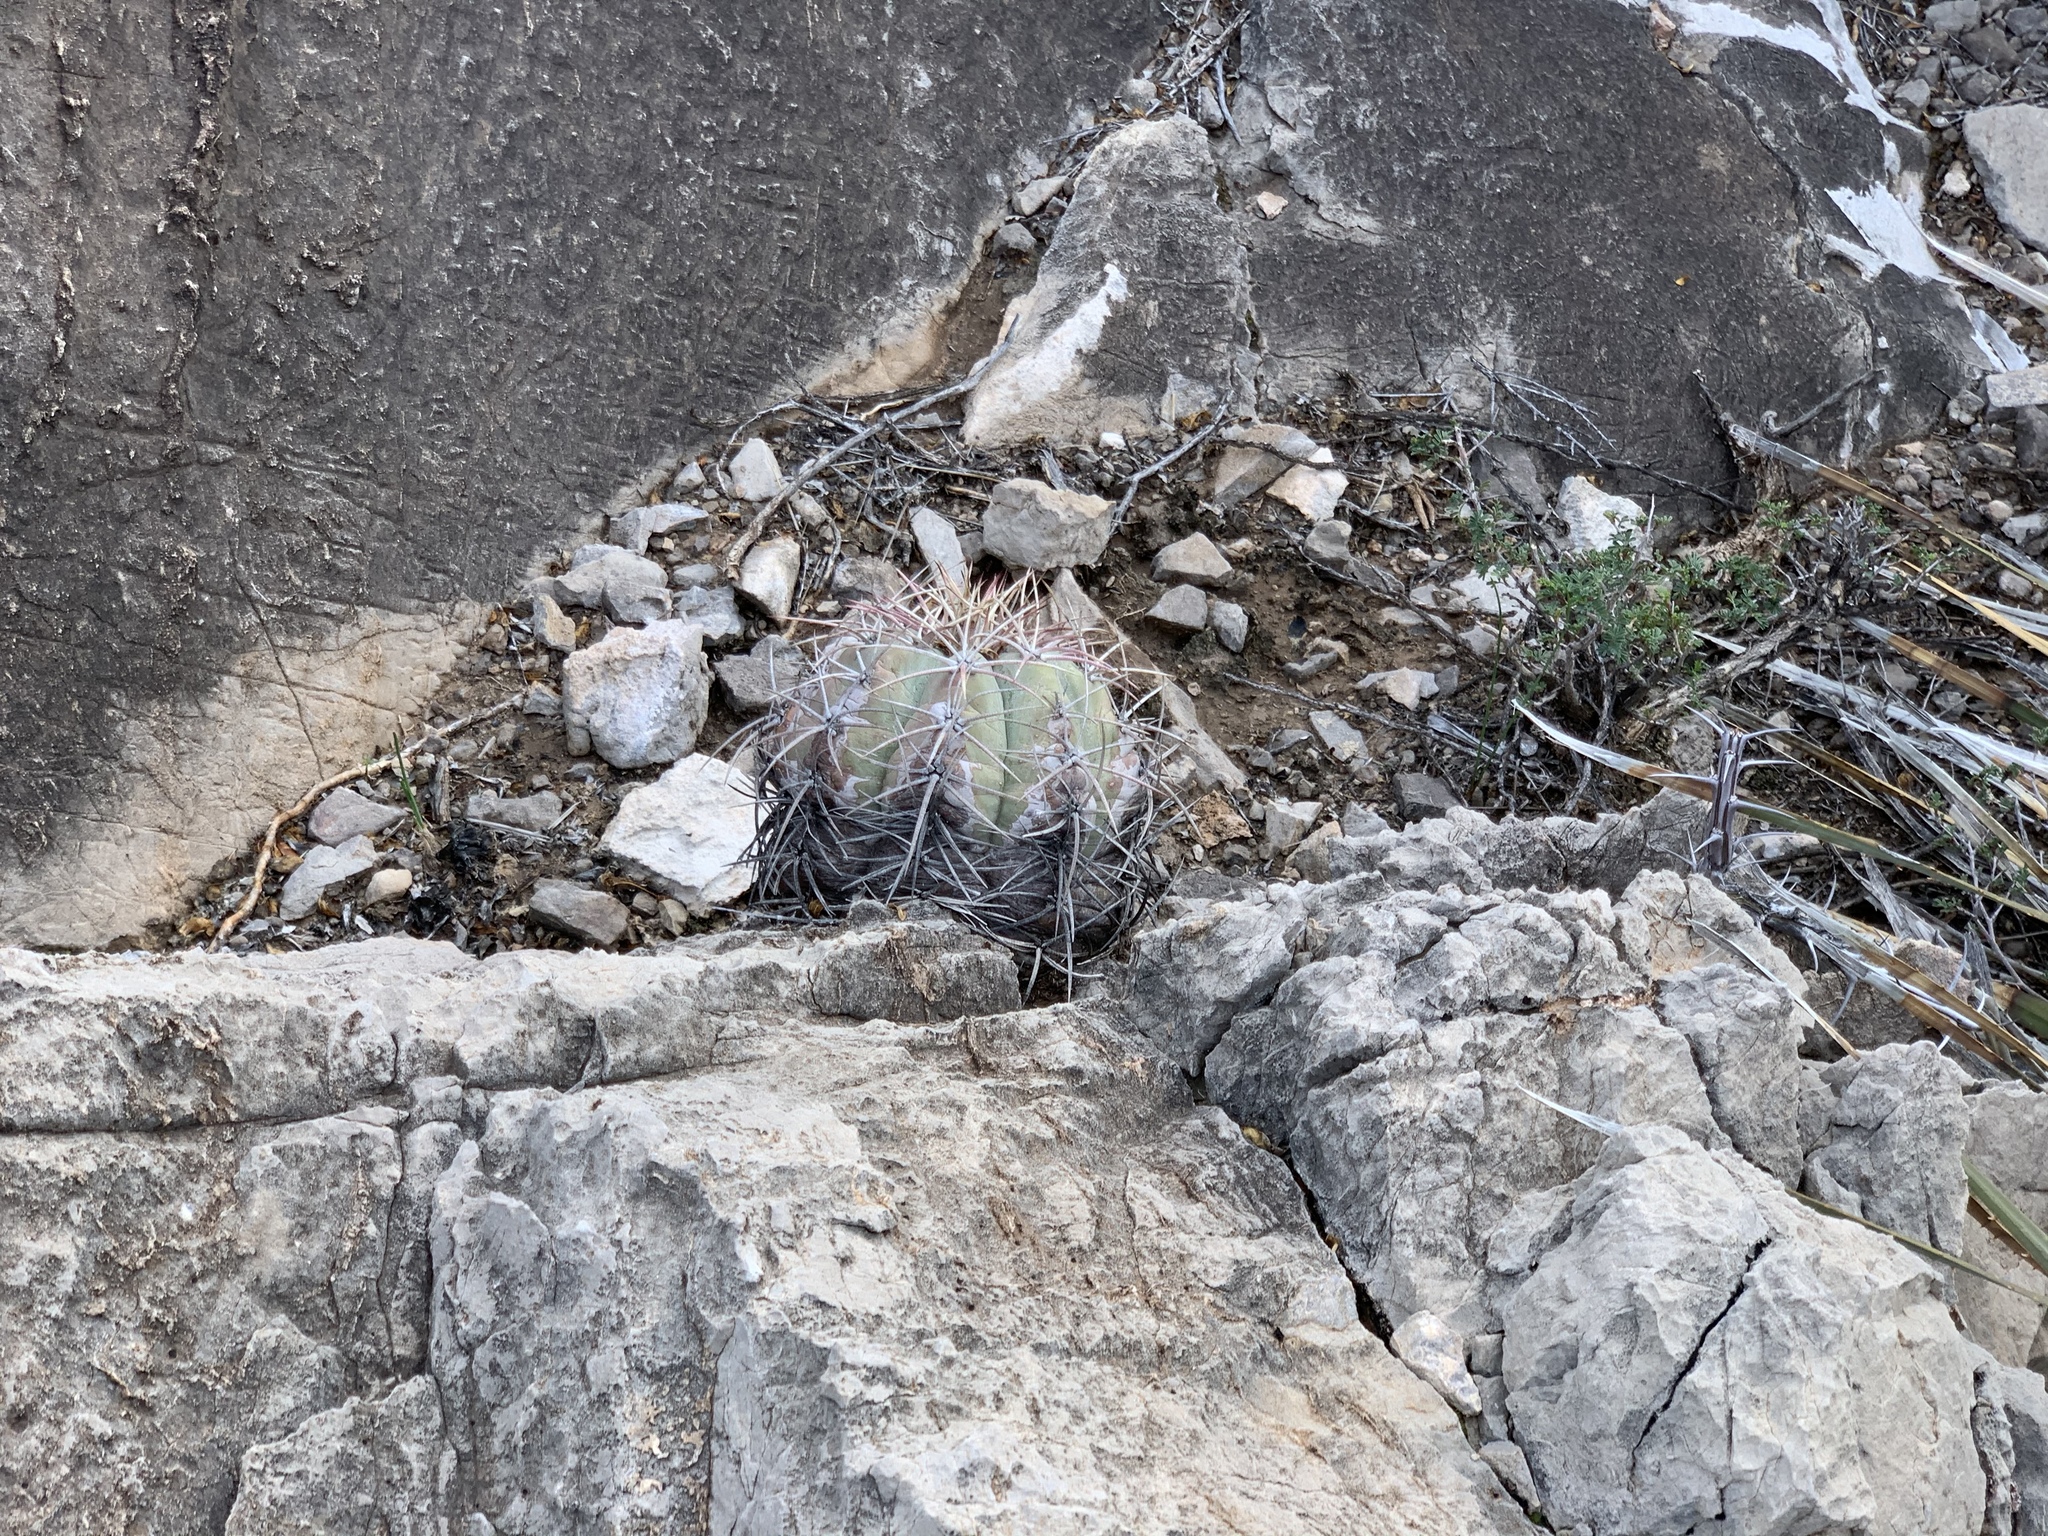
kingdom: Plantae
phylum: Tracheophyta
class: Magnoliopsida
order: Caryophyllales
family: Cactaceae
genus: Echinocactus
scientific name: Echinocactus horizonthalonius
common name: Devilshead
